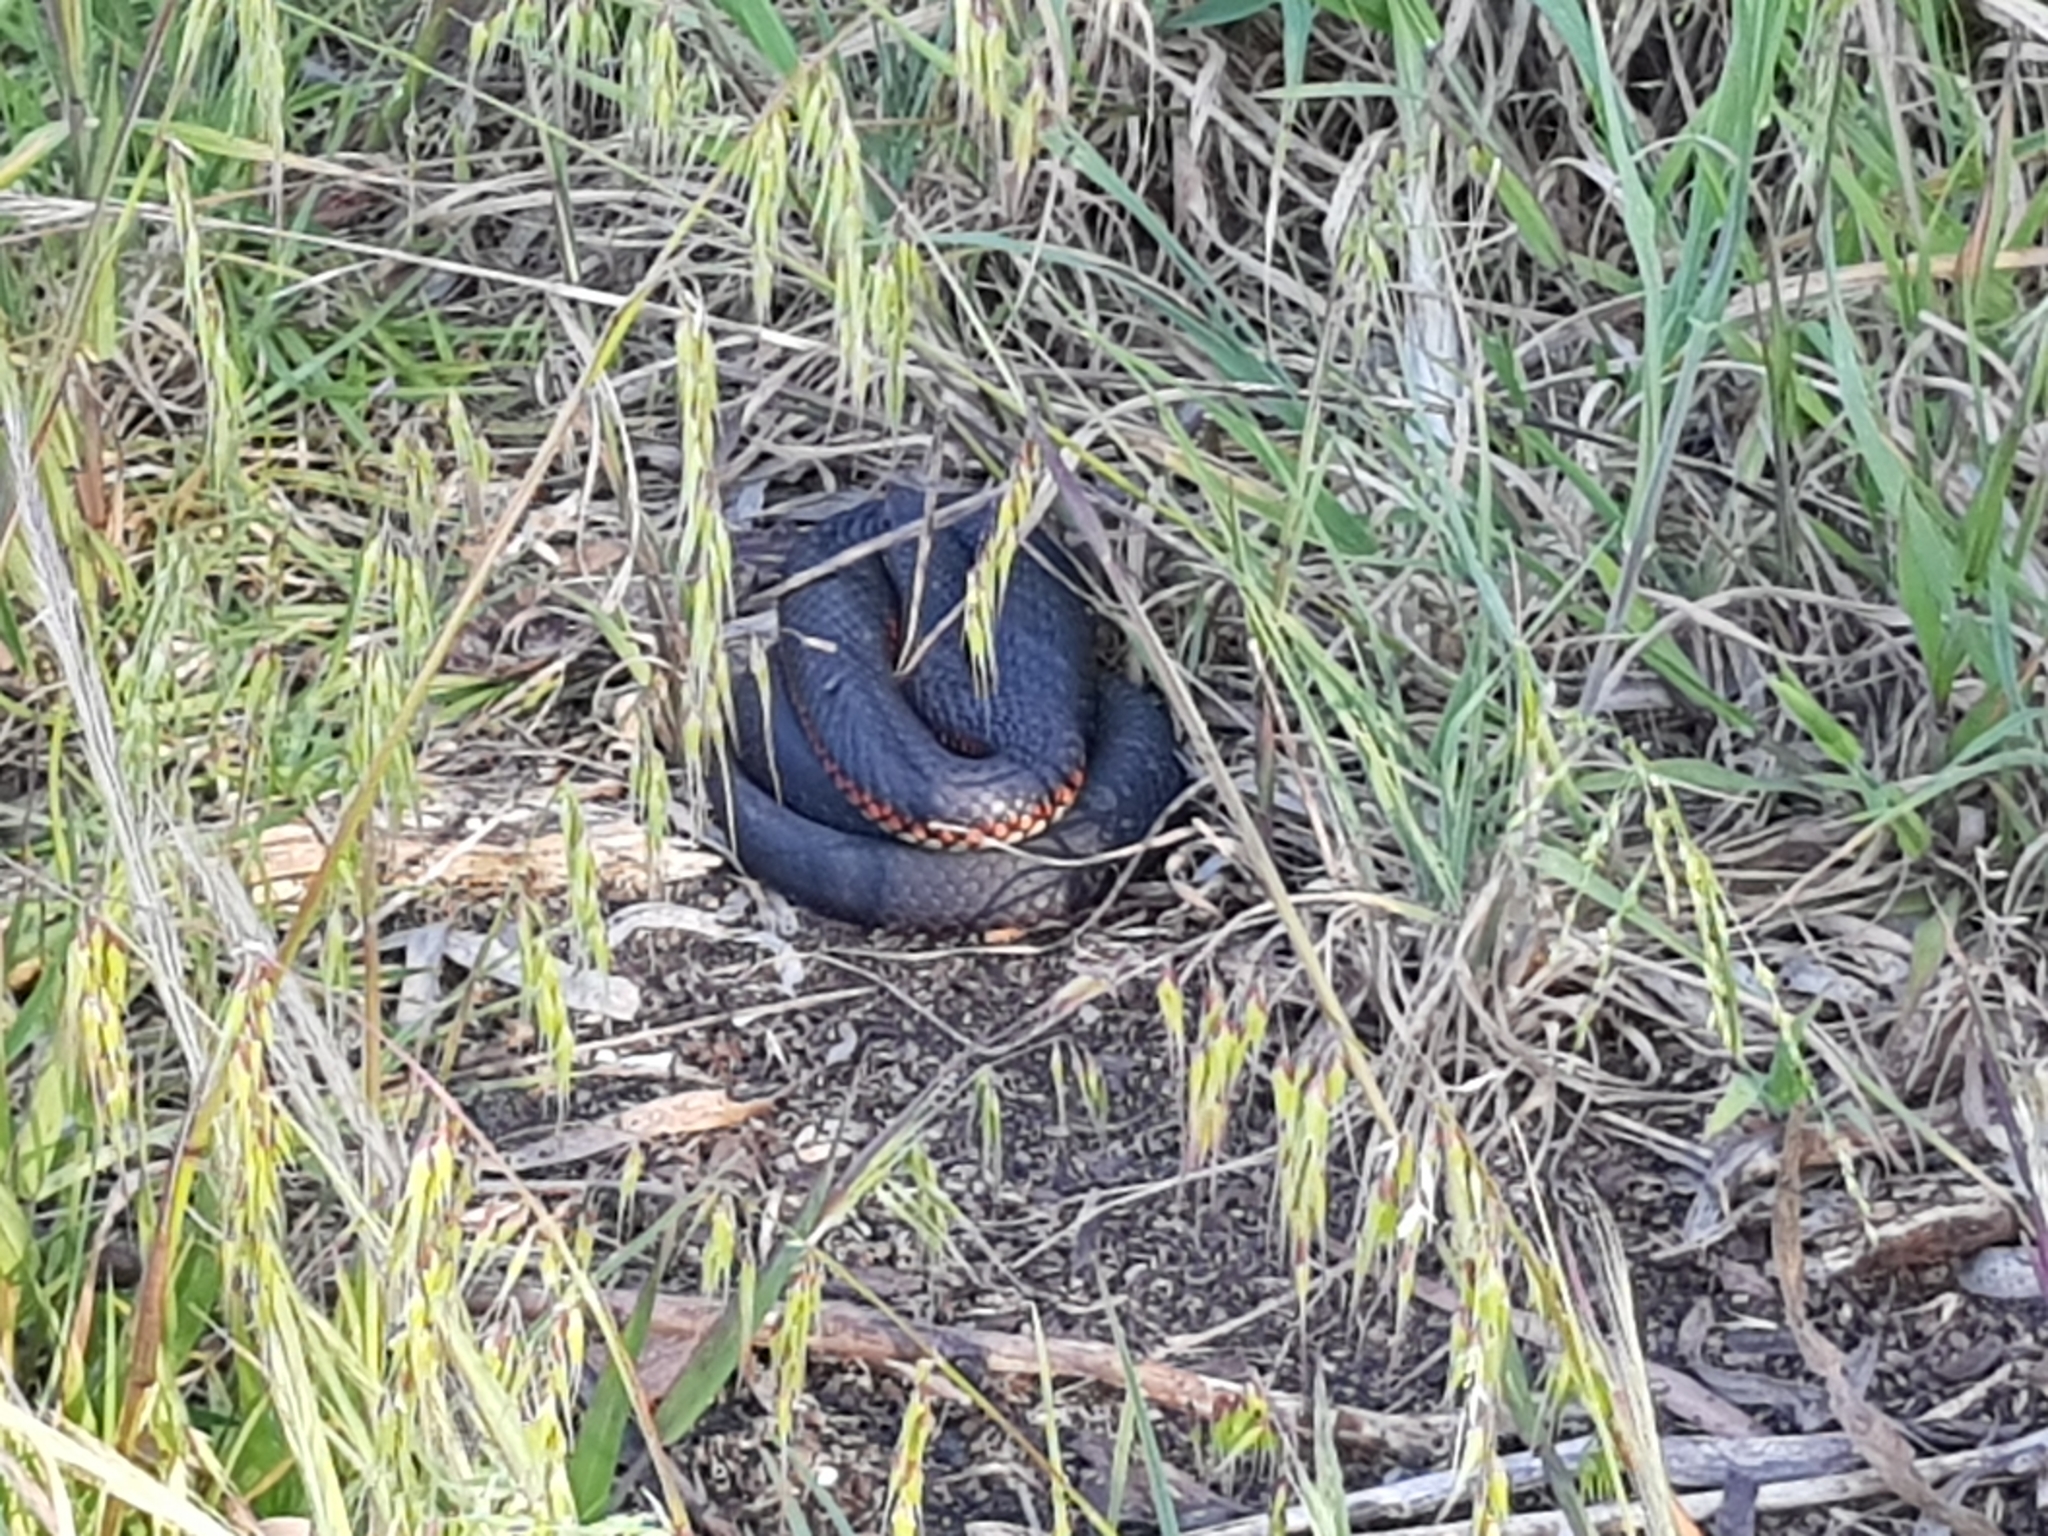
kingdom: Animalia
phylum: Chordata
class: Squamata
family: Elapidae
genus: Austrelaps
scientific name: Austrelaps superbus
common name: Copperhead snake
